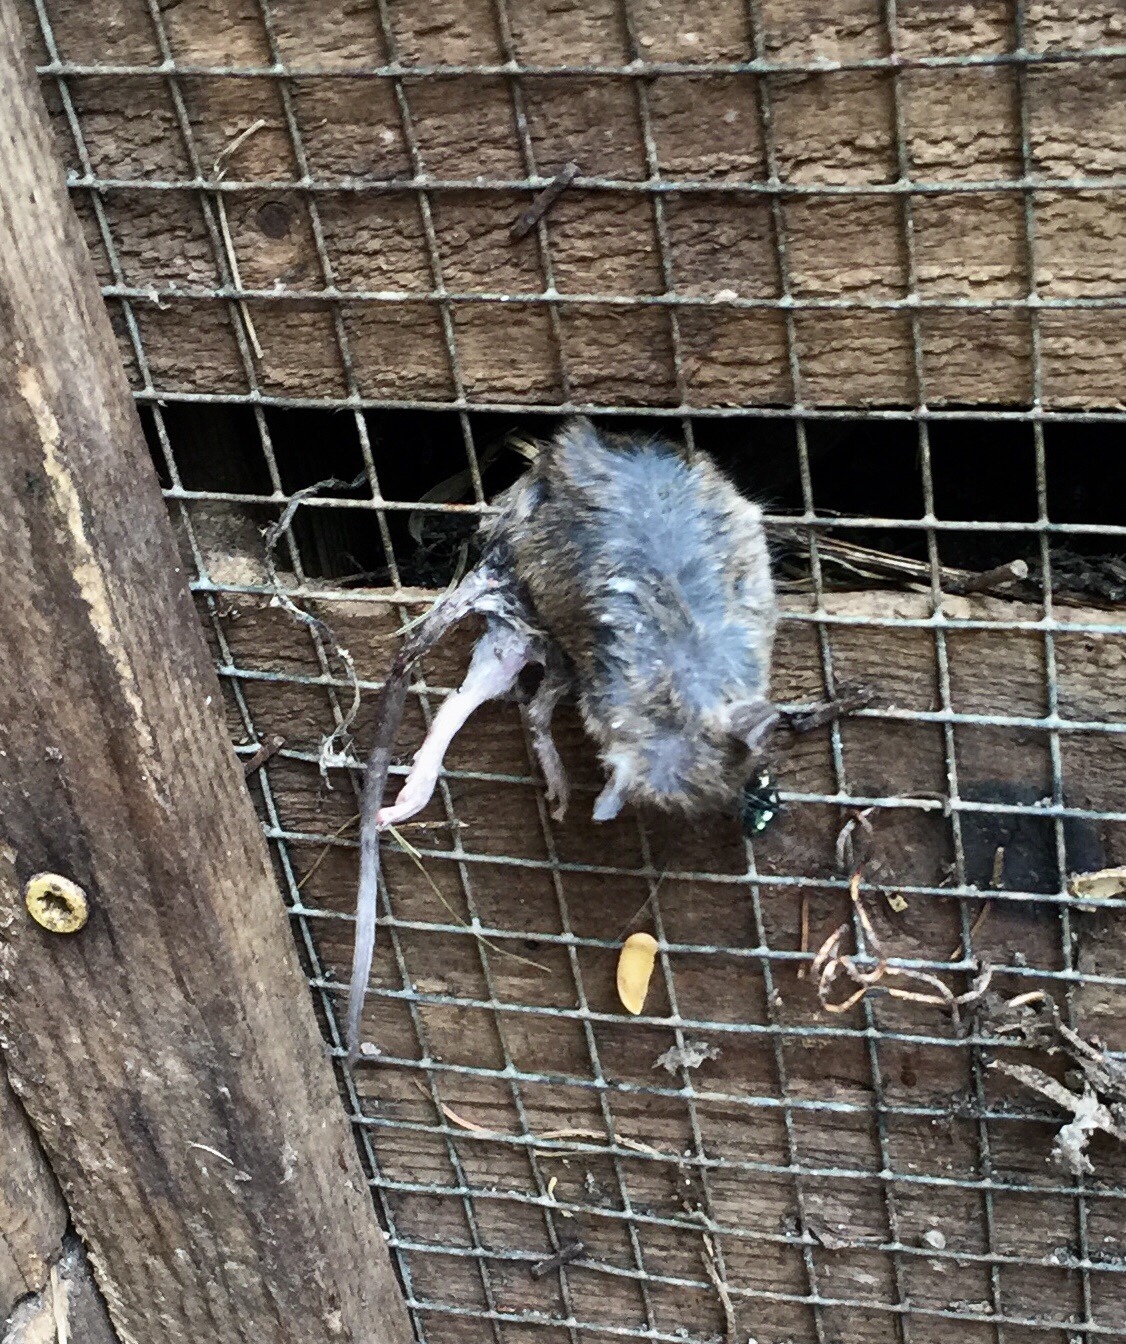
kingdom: Animalia
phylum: Chordata
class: Mammalia
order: Rodentia
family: Muridae
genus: Rattus
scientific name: Rattus norvegicus
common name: Brown rat
